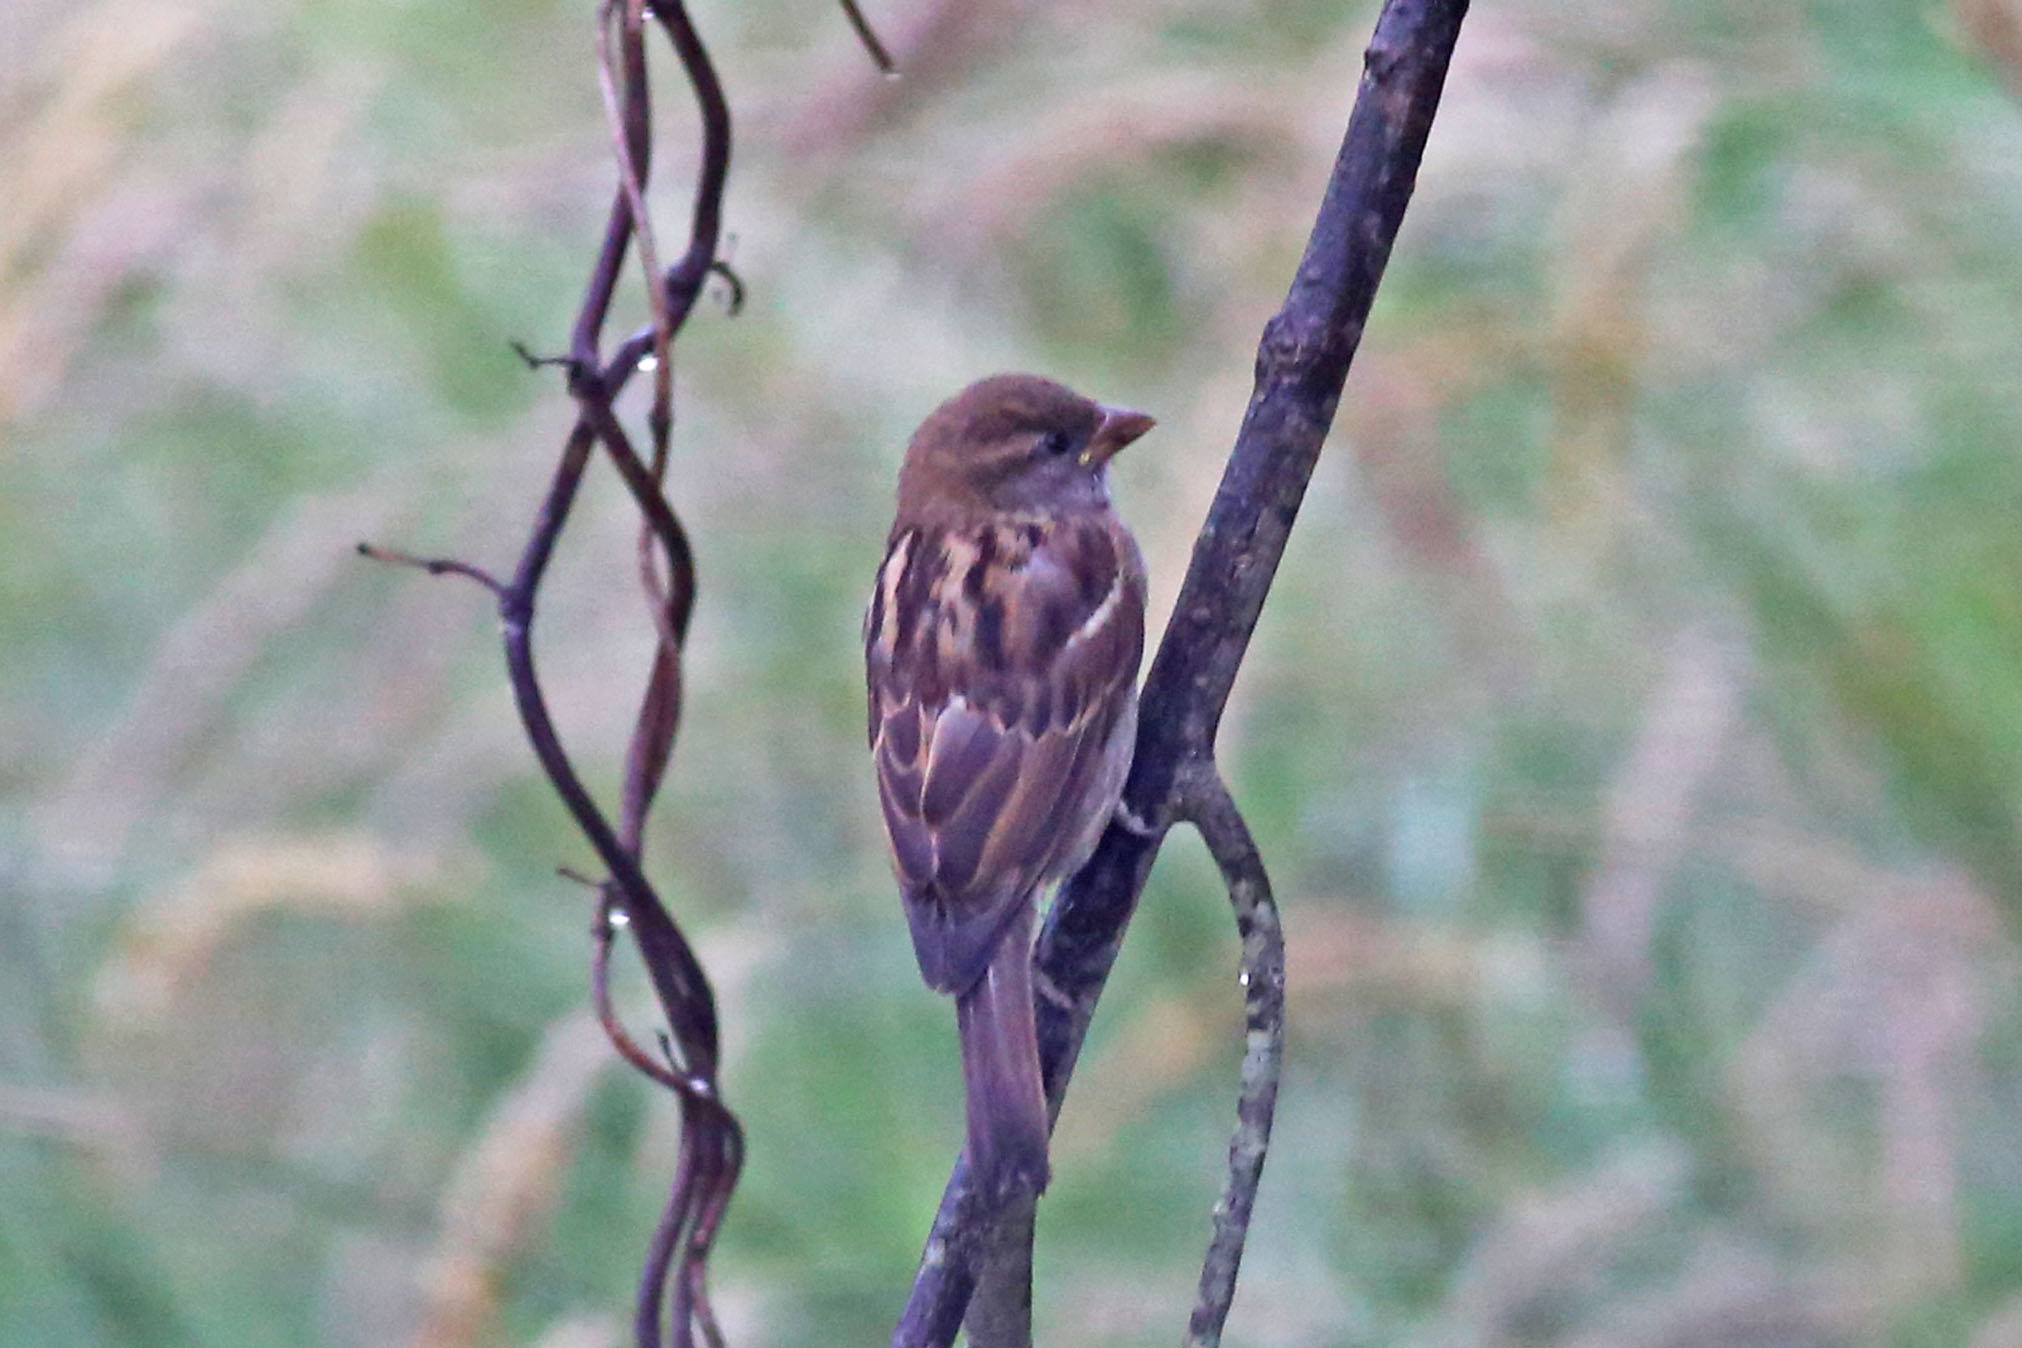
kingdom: Animalia
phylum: Chordata
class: Aves
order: Passeriformes
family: Passeridae
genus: Passer
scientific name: Passer domesticus
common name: House sparrow
